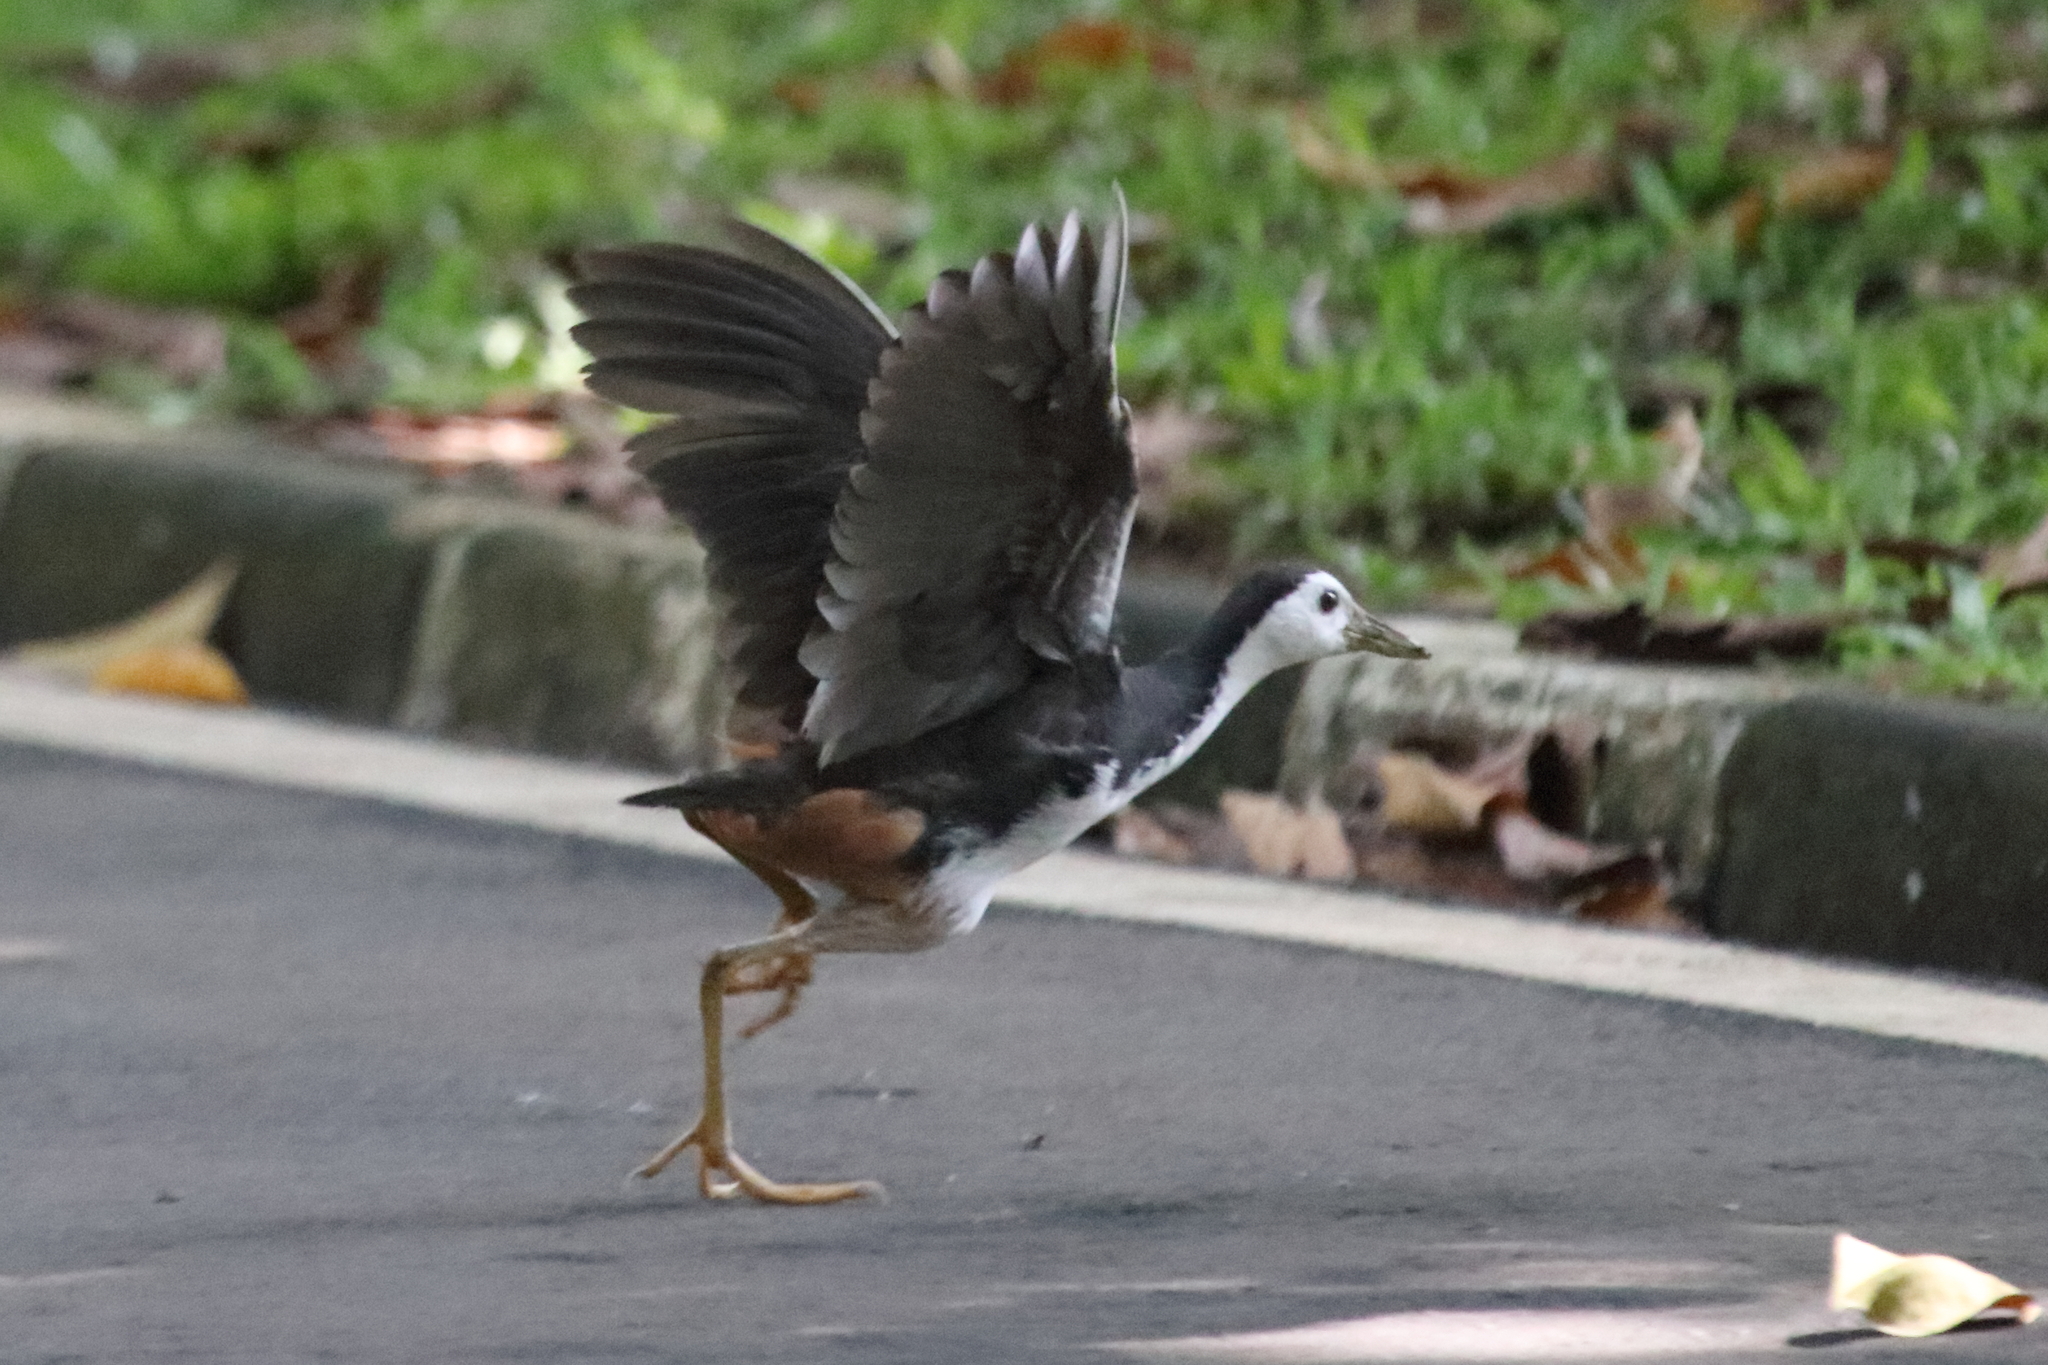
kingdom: Animalia
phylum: Chordata
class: Aves
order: Gruiformes
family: Rallidae
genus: Amaurornis
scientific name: Amaurornis phoenicurus
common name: White-breasted waterhen
